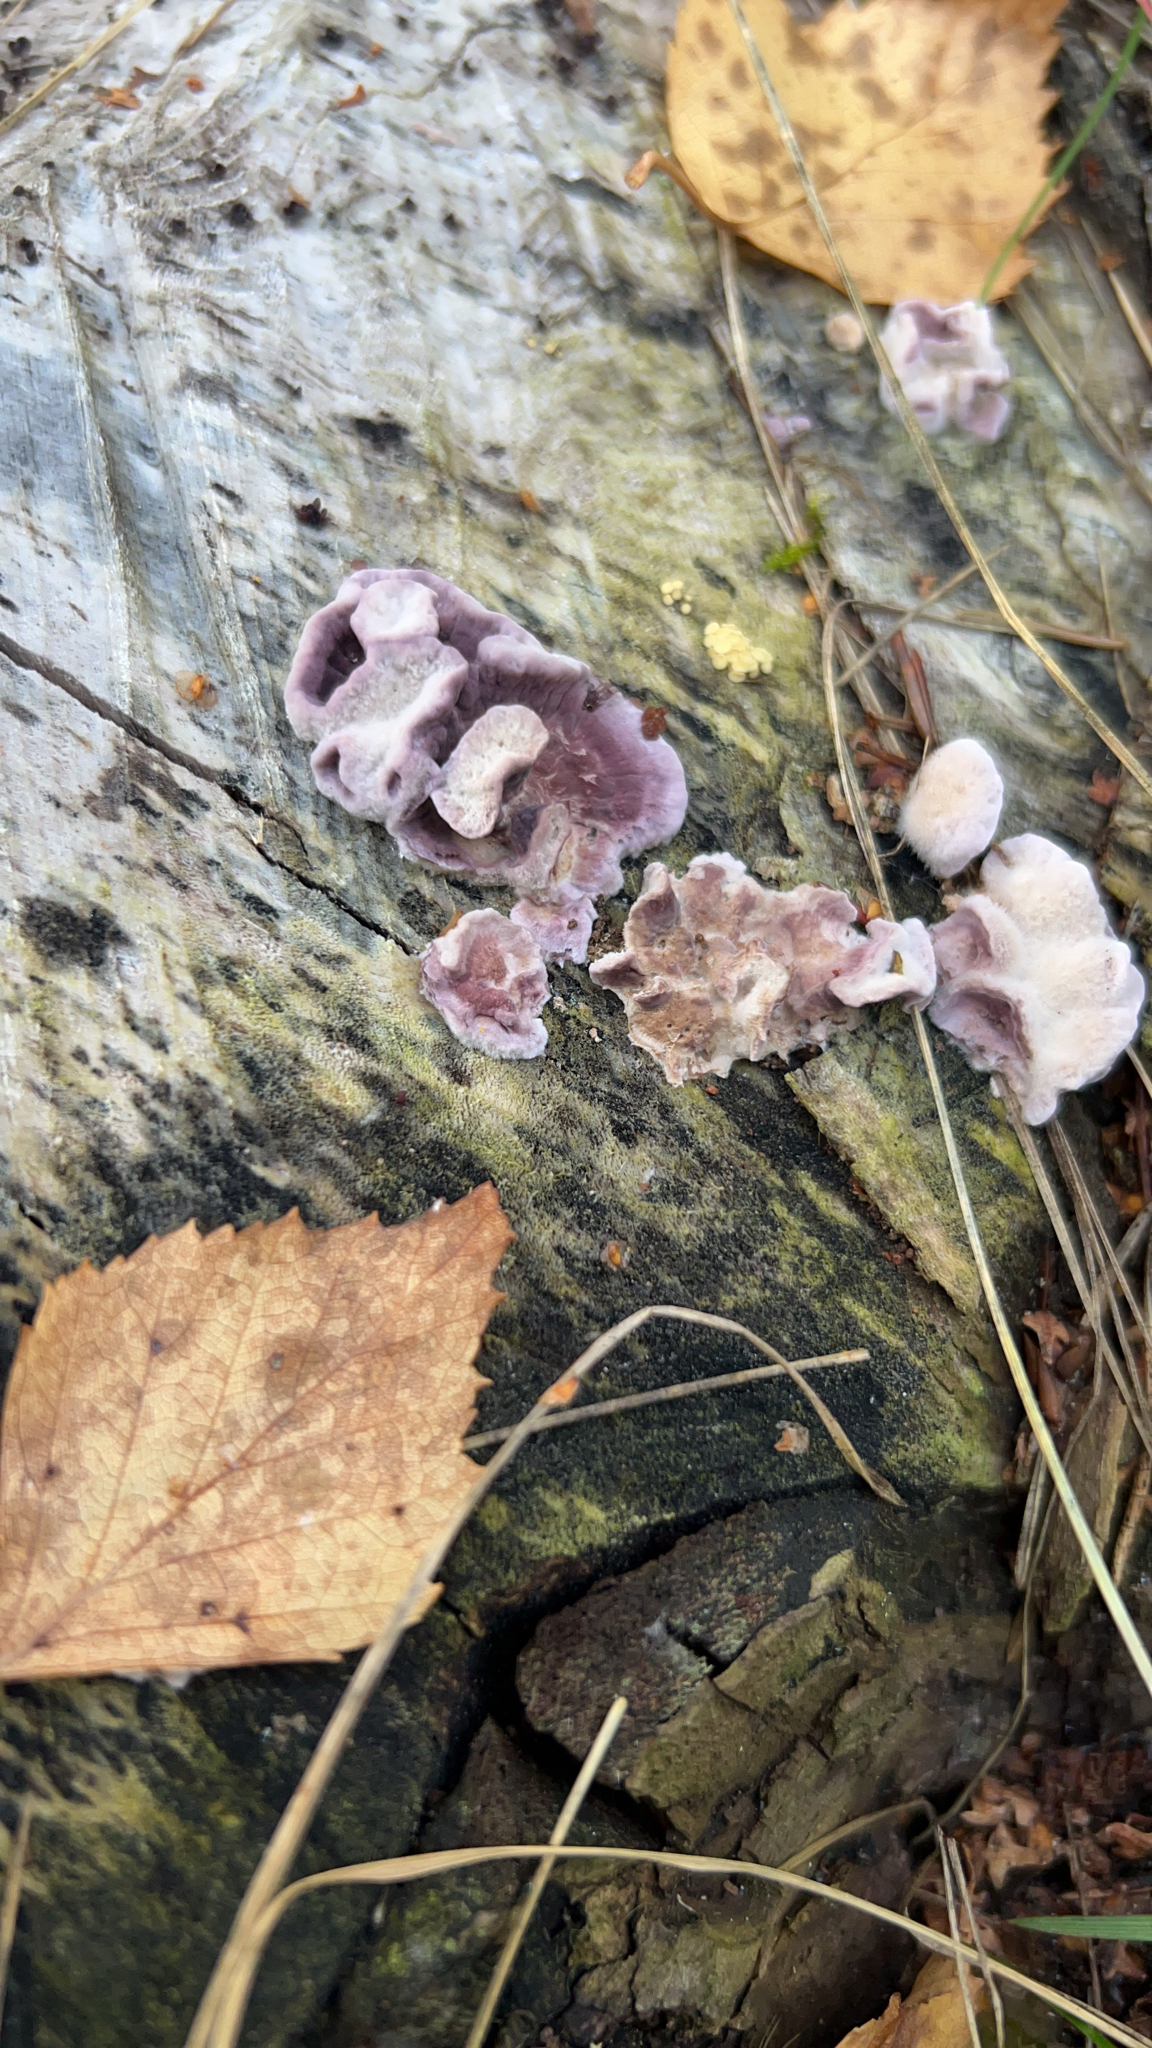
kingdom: Fungi
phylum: Basidiomycota
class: Agaricomycetes
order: Agaricales
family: Cyphellaceae
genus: Chondrostereum
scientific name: Chondrostereum purpureum
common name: Silver leaf disease
